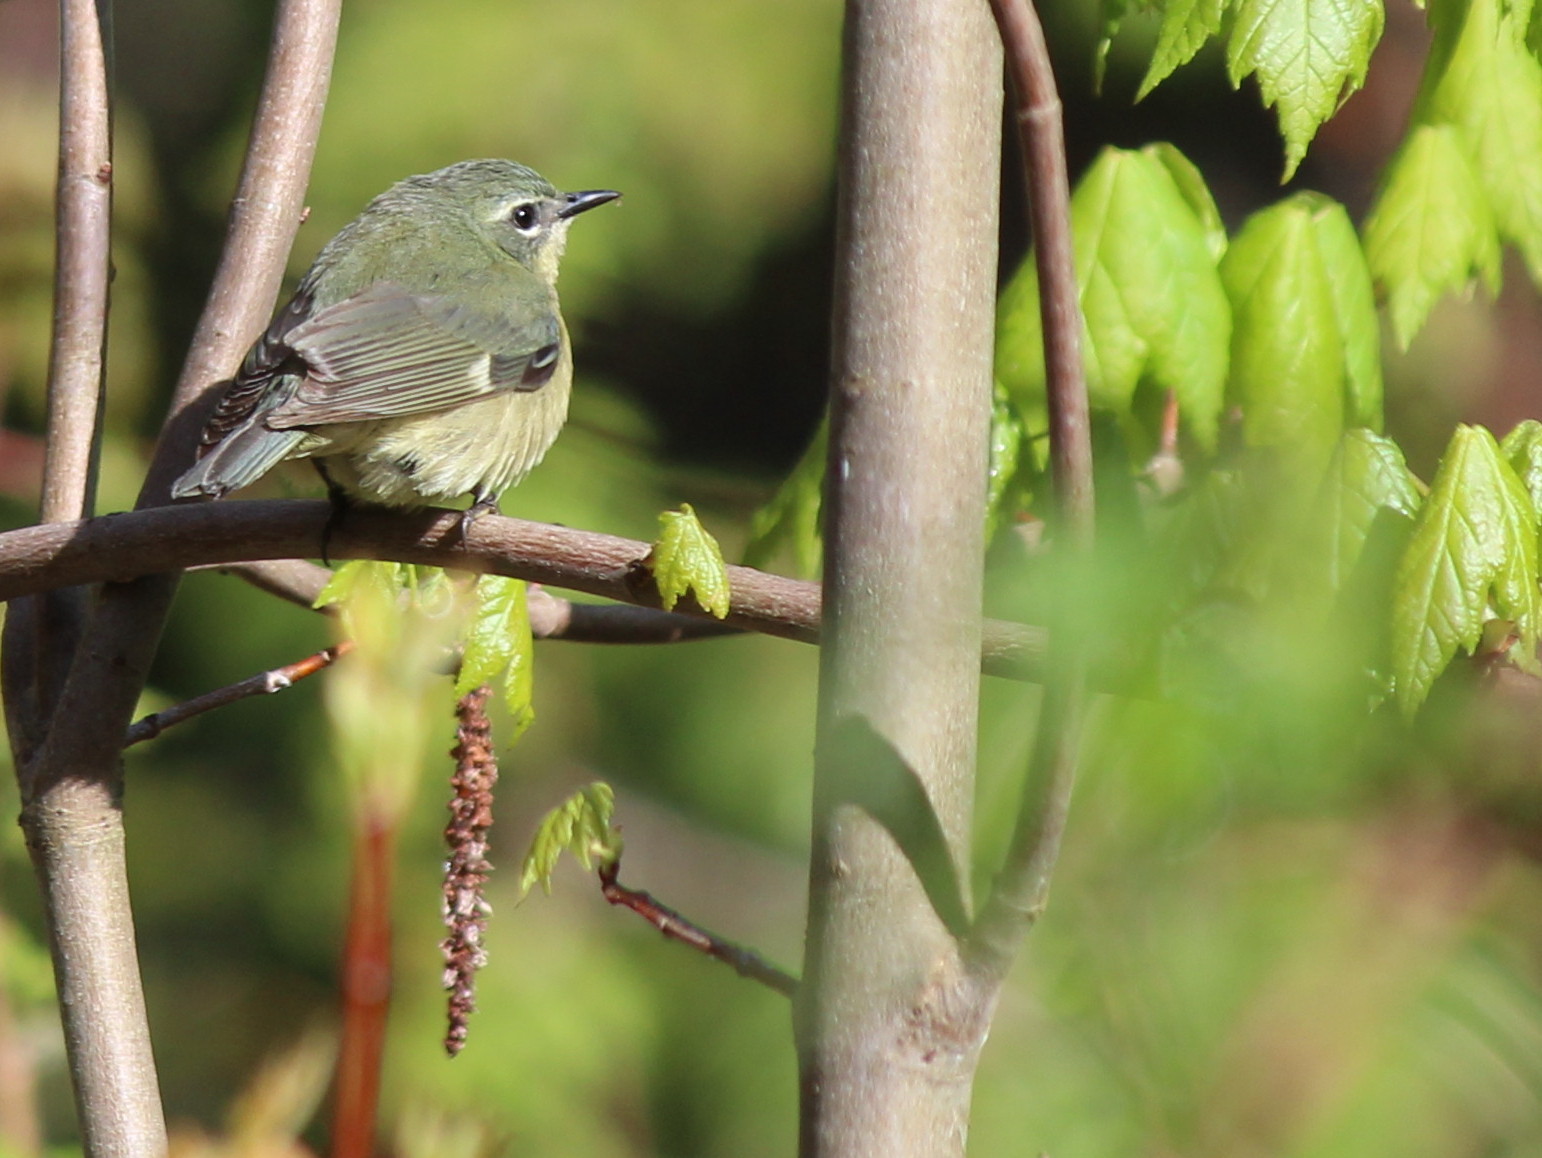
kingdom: Animalia
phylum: Chordata
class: Aves
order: Passeriformes
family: Parulidae
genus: Setophaga
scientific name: Setophaga caerulescens
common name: Black-throated blue warbler
